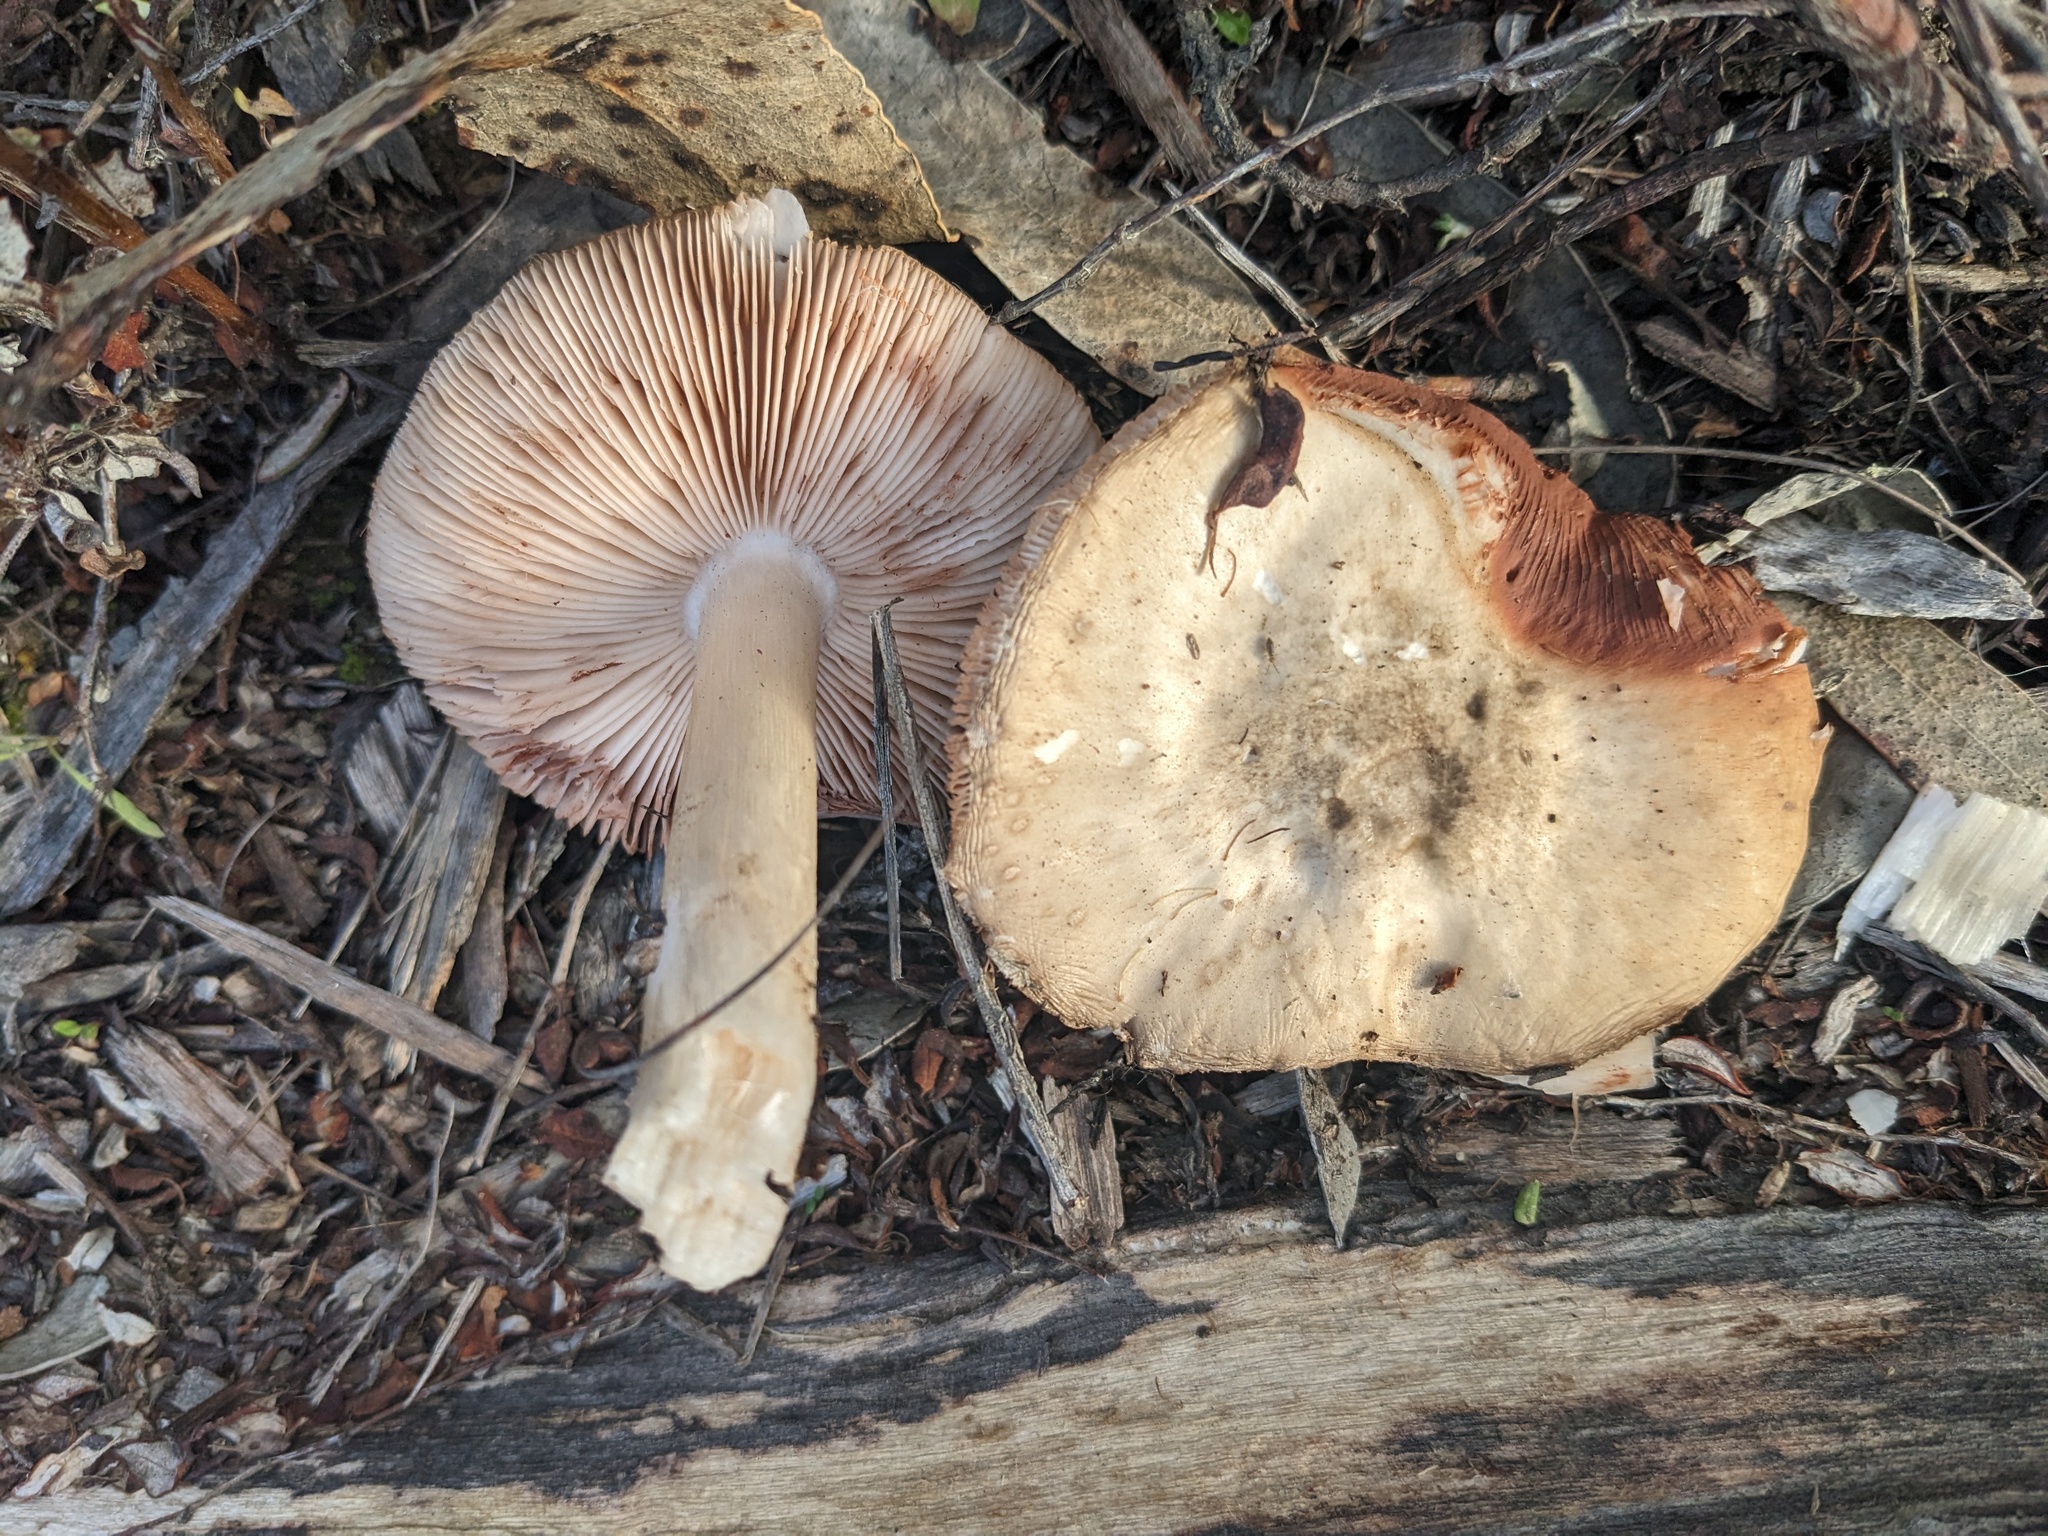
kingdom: Fungi
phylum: Basidiomycota
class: Agaricomycetes
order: Agaricales
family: Pluteaceae
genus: Volvopluteus
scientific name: Volvopluteus gloiocephalus
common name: Stubble rosegill
